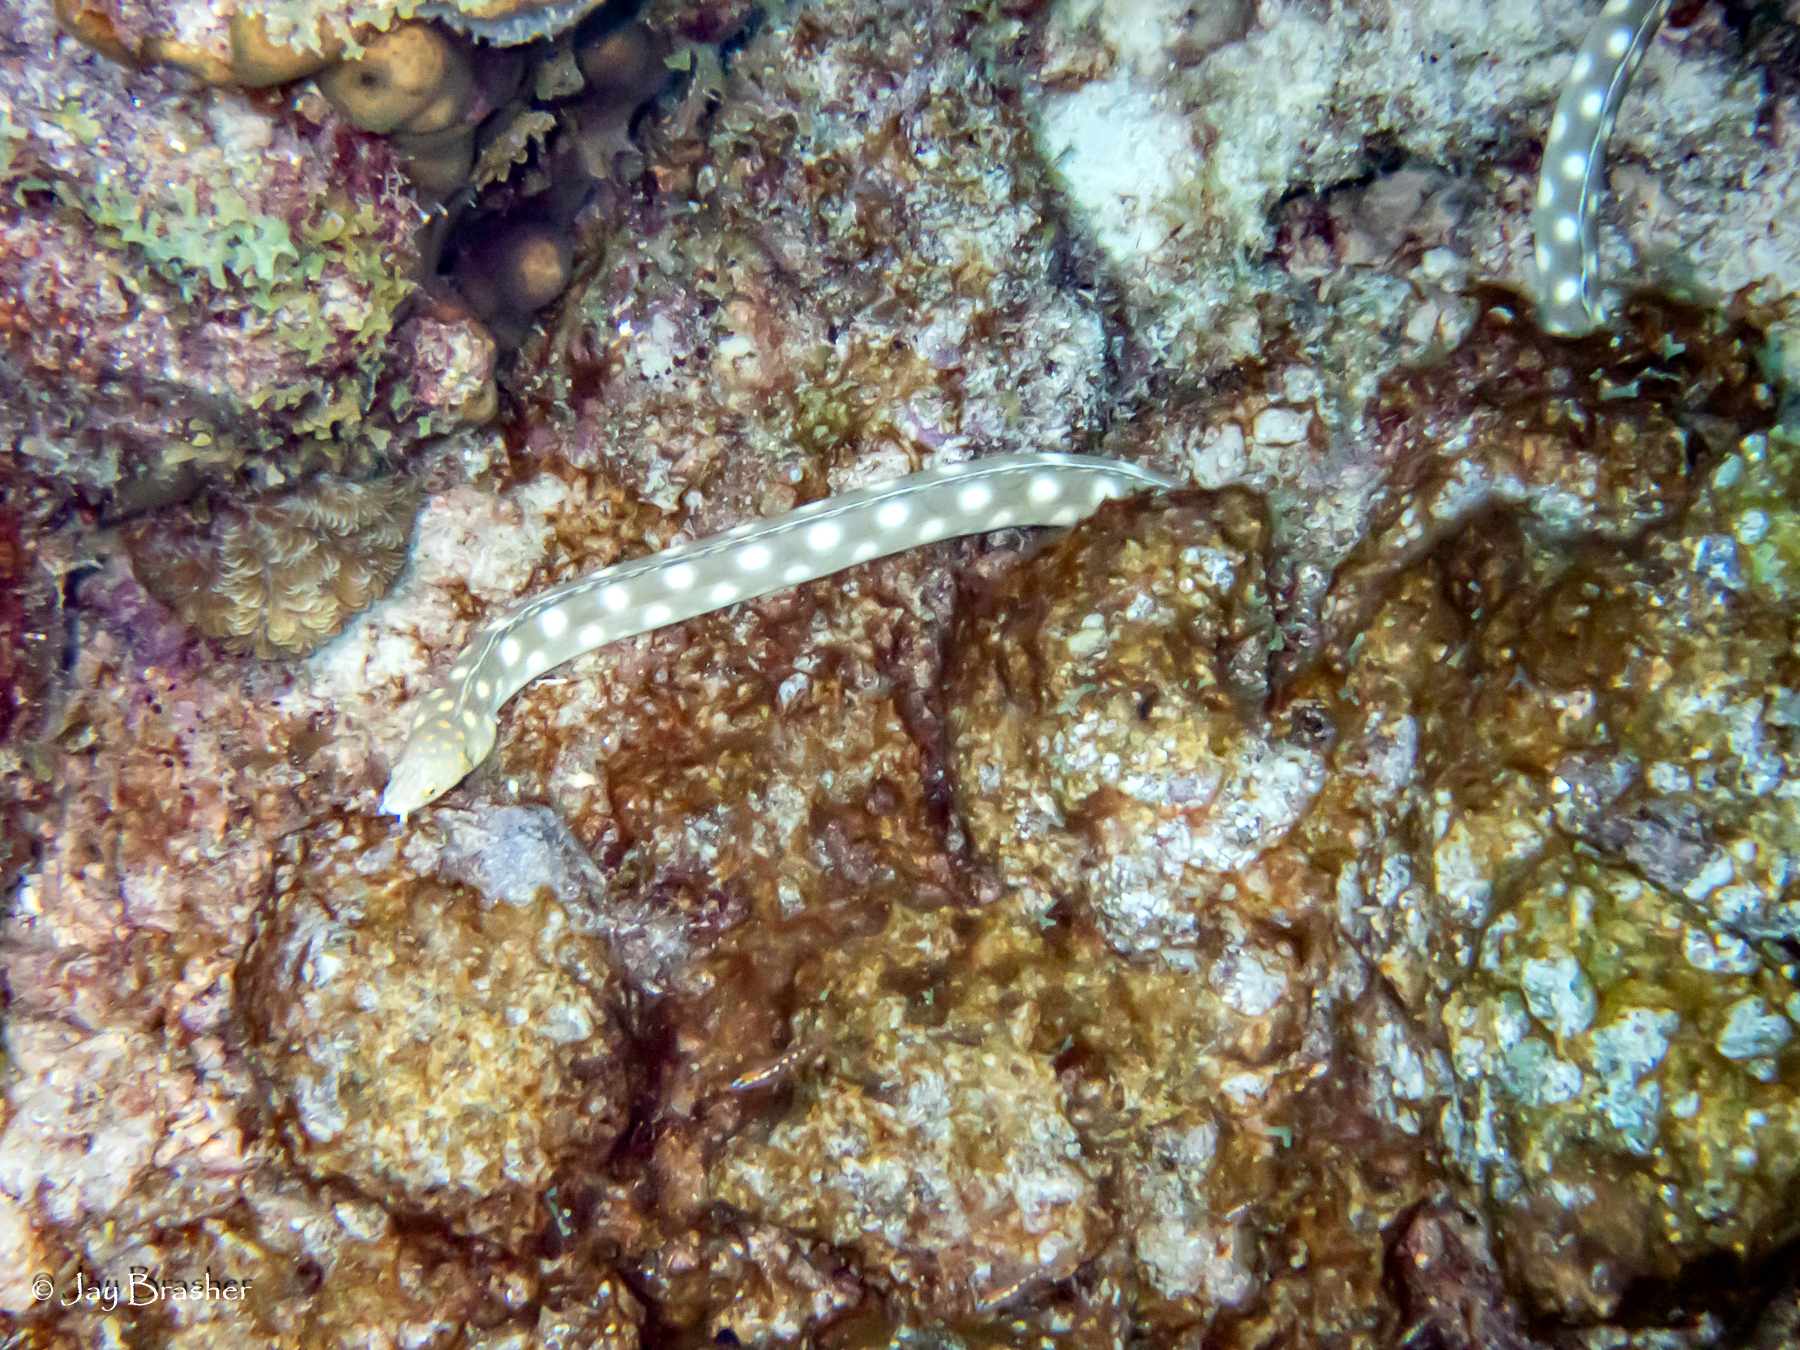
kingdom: Animalia
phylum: Chordata
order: Anguilliformes
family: Ophichthidae
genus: Myrichthys
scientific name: Myrichthys breviceps
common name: Sharptail eel
